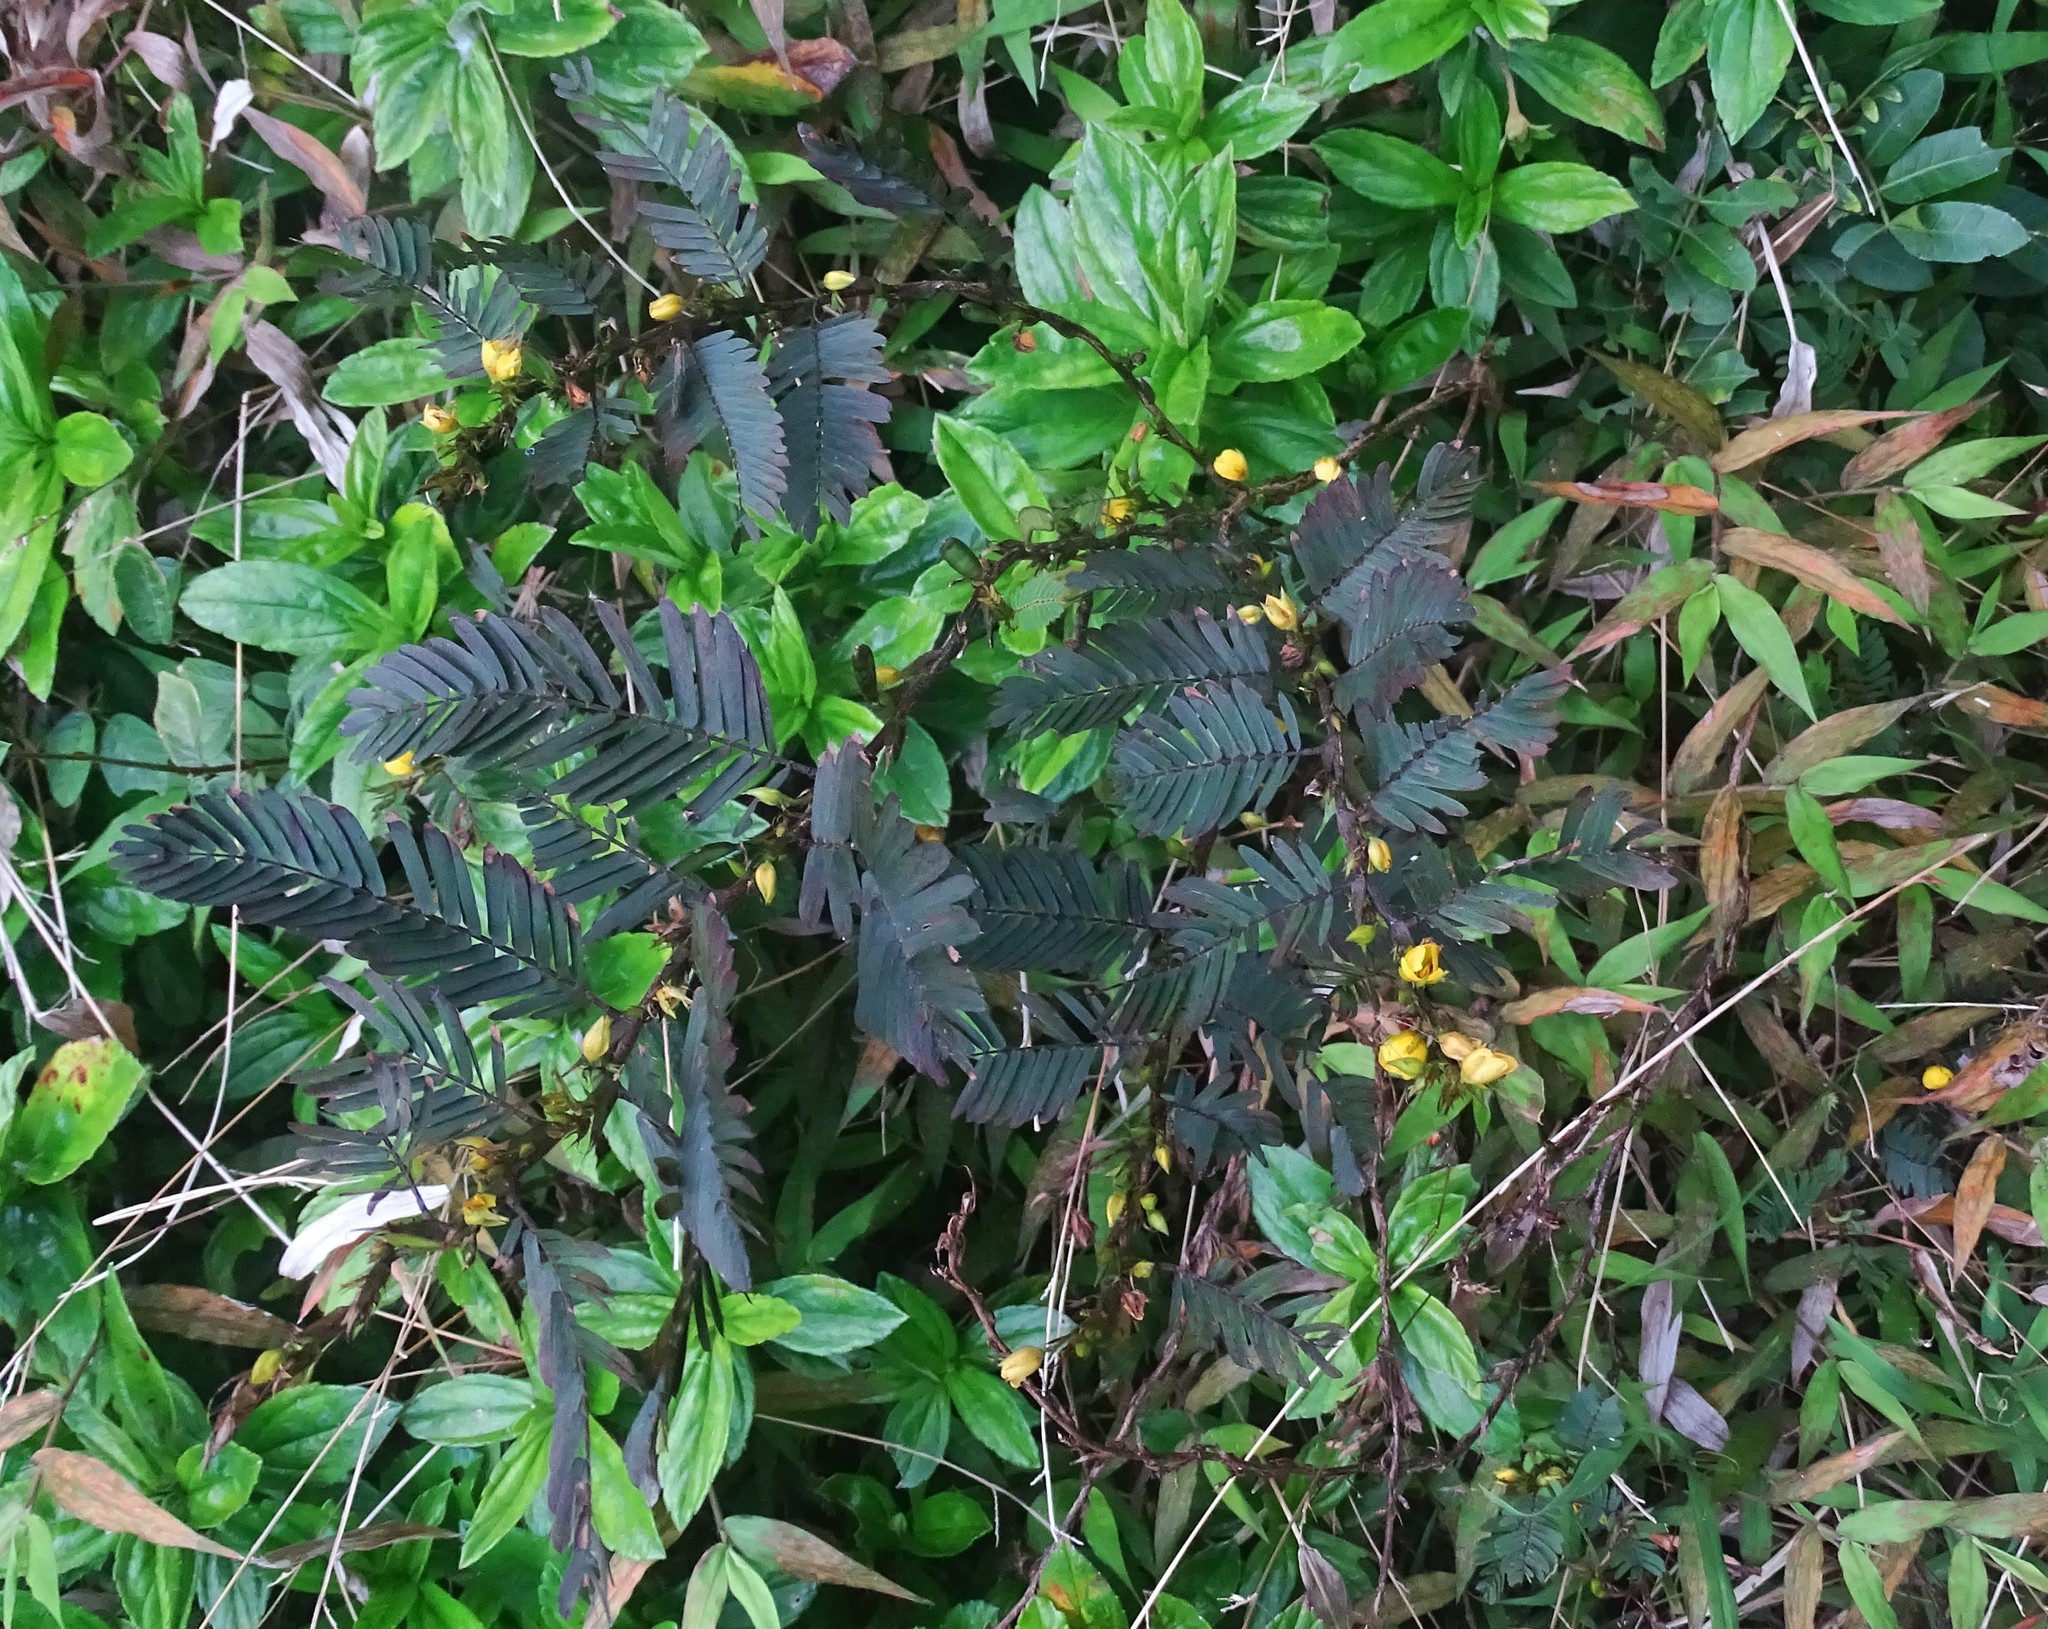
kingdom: Plantae
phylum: Tracheophyta
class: Magnoliopsida
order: Fabales
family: Fabaceae
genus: Chamaecrista
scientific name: Chamaecrista nictitans
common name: Sensitive cassia
